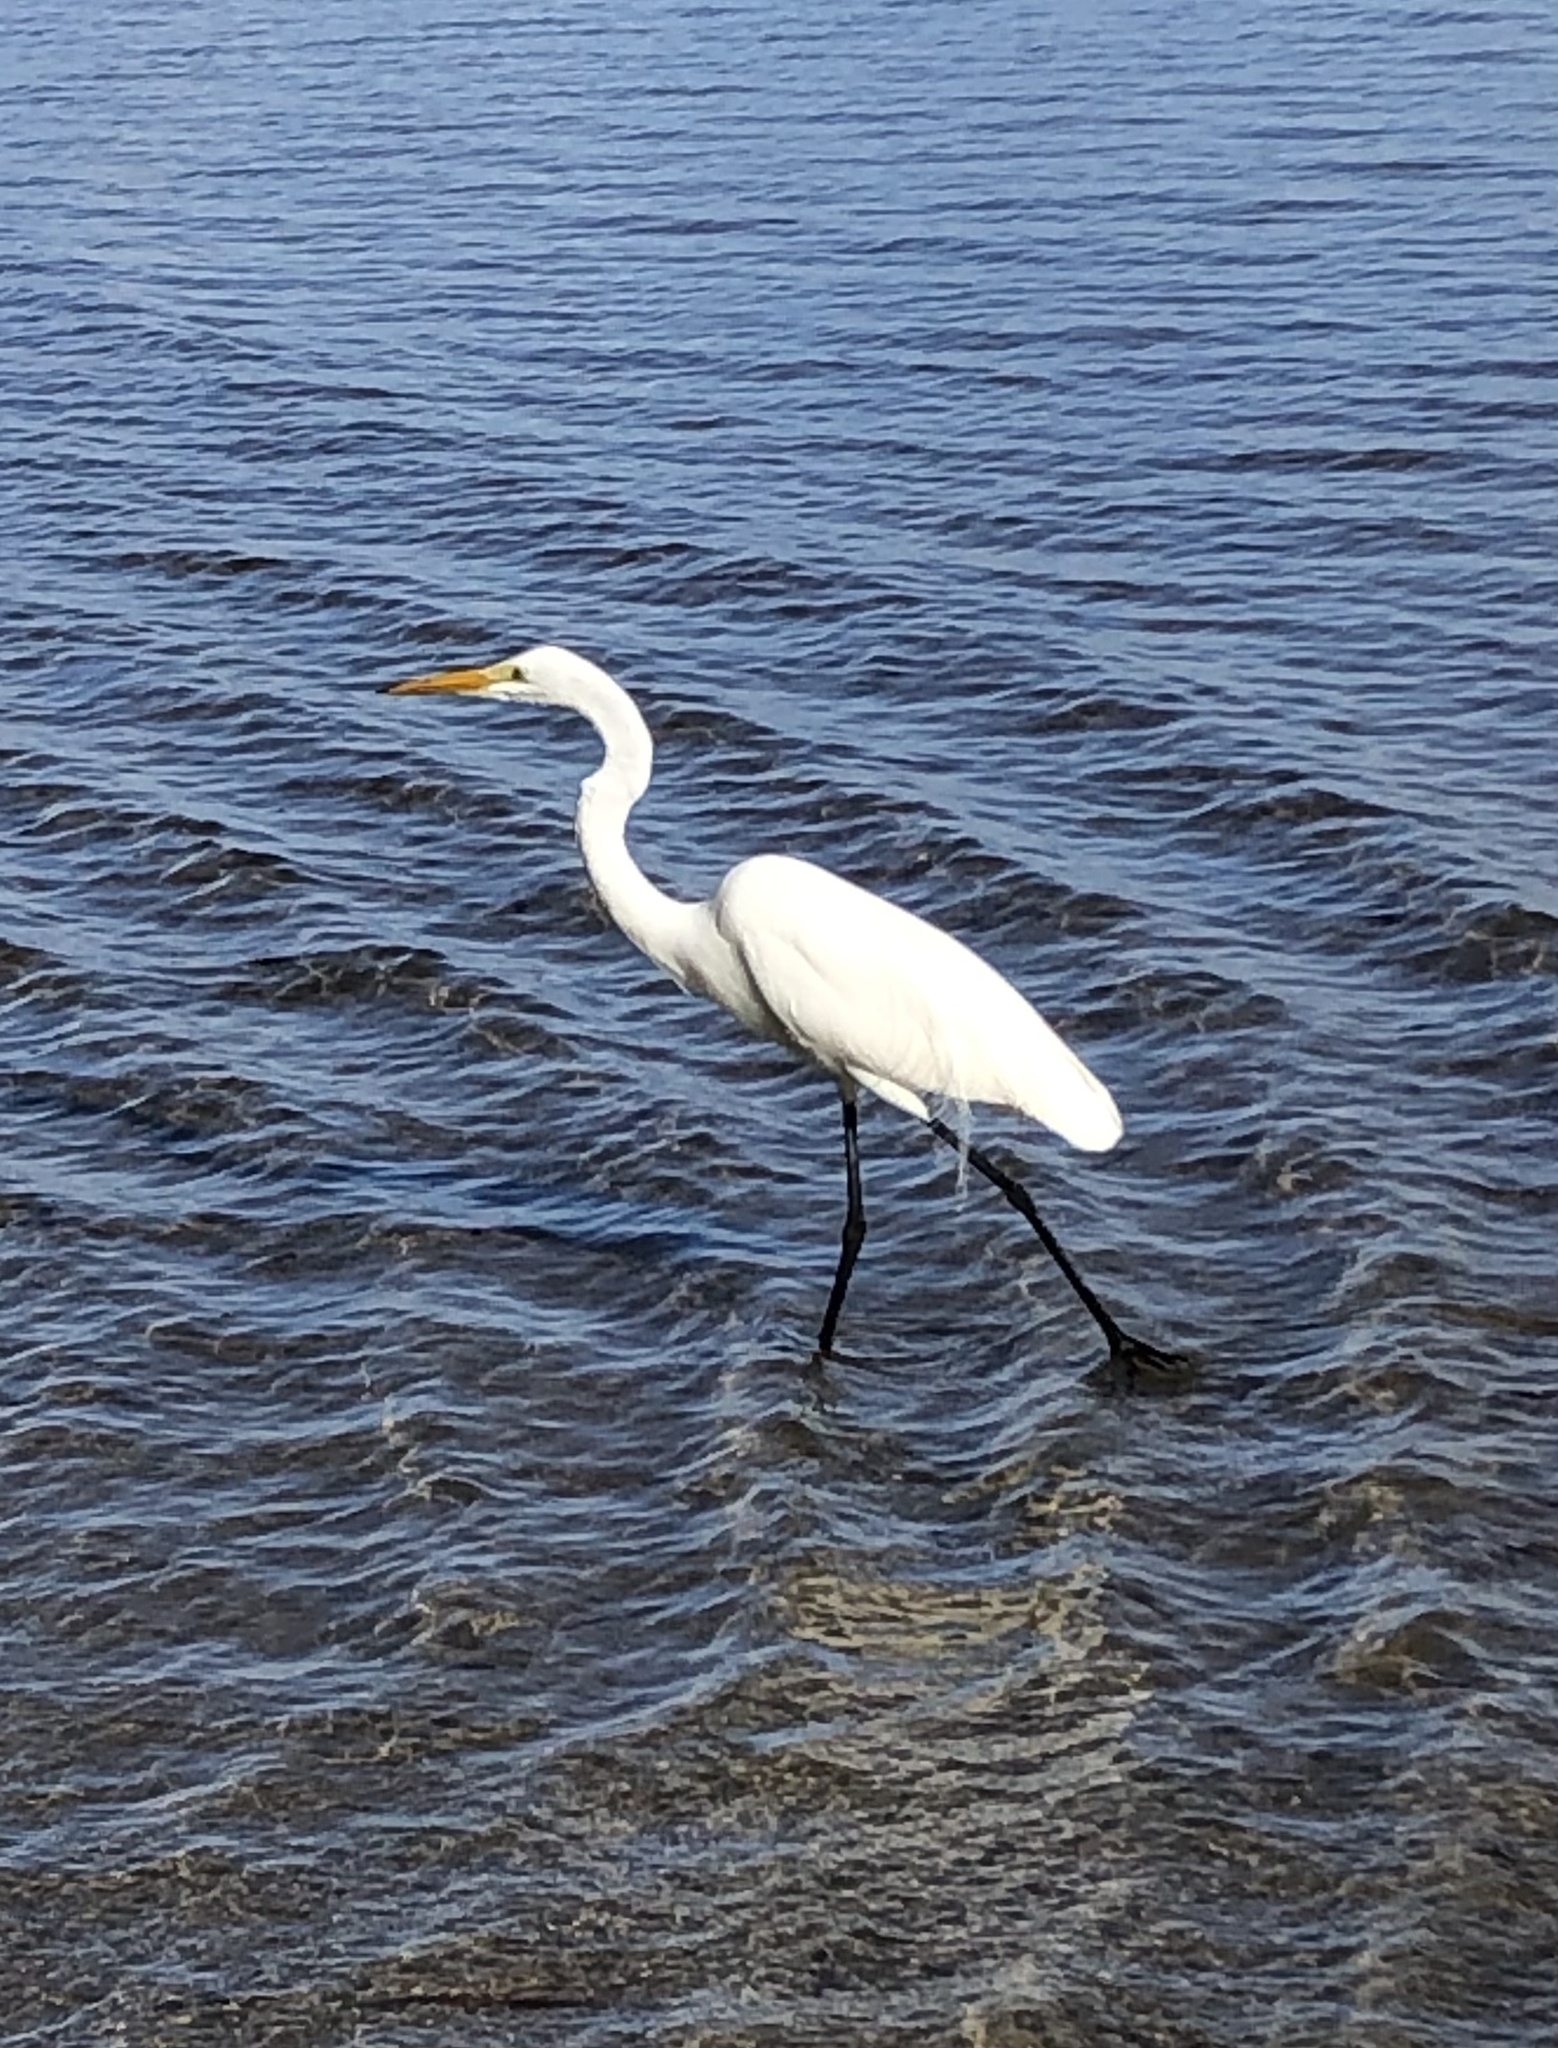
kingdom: Animalia
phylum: Chordata
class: Aves
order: Pelecaniformes
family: Ardeidae
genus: Ardea
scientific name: Ardea alba
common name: Great egret
